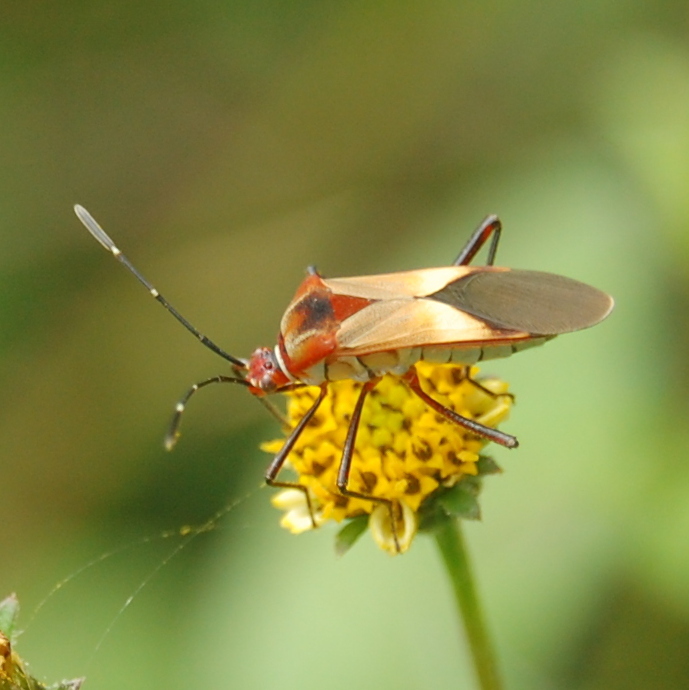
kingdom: Animalia
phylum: Arthropoda
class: Insecta
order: Hemiptera
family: Coreidae
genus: Hypselonotus
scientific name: Hypselonotus interruptus
